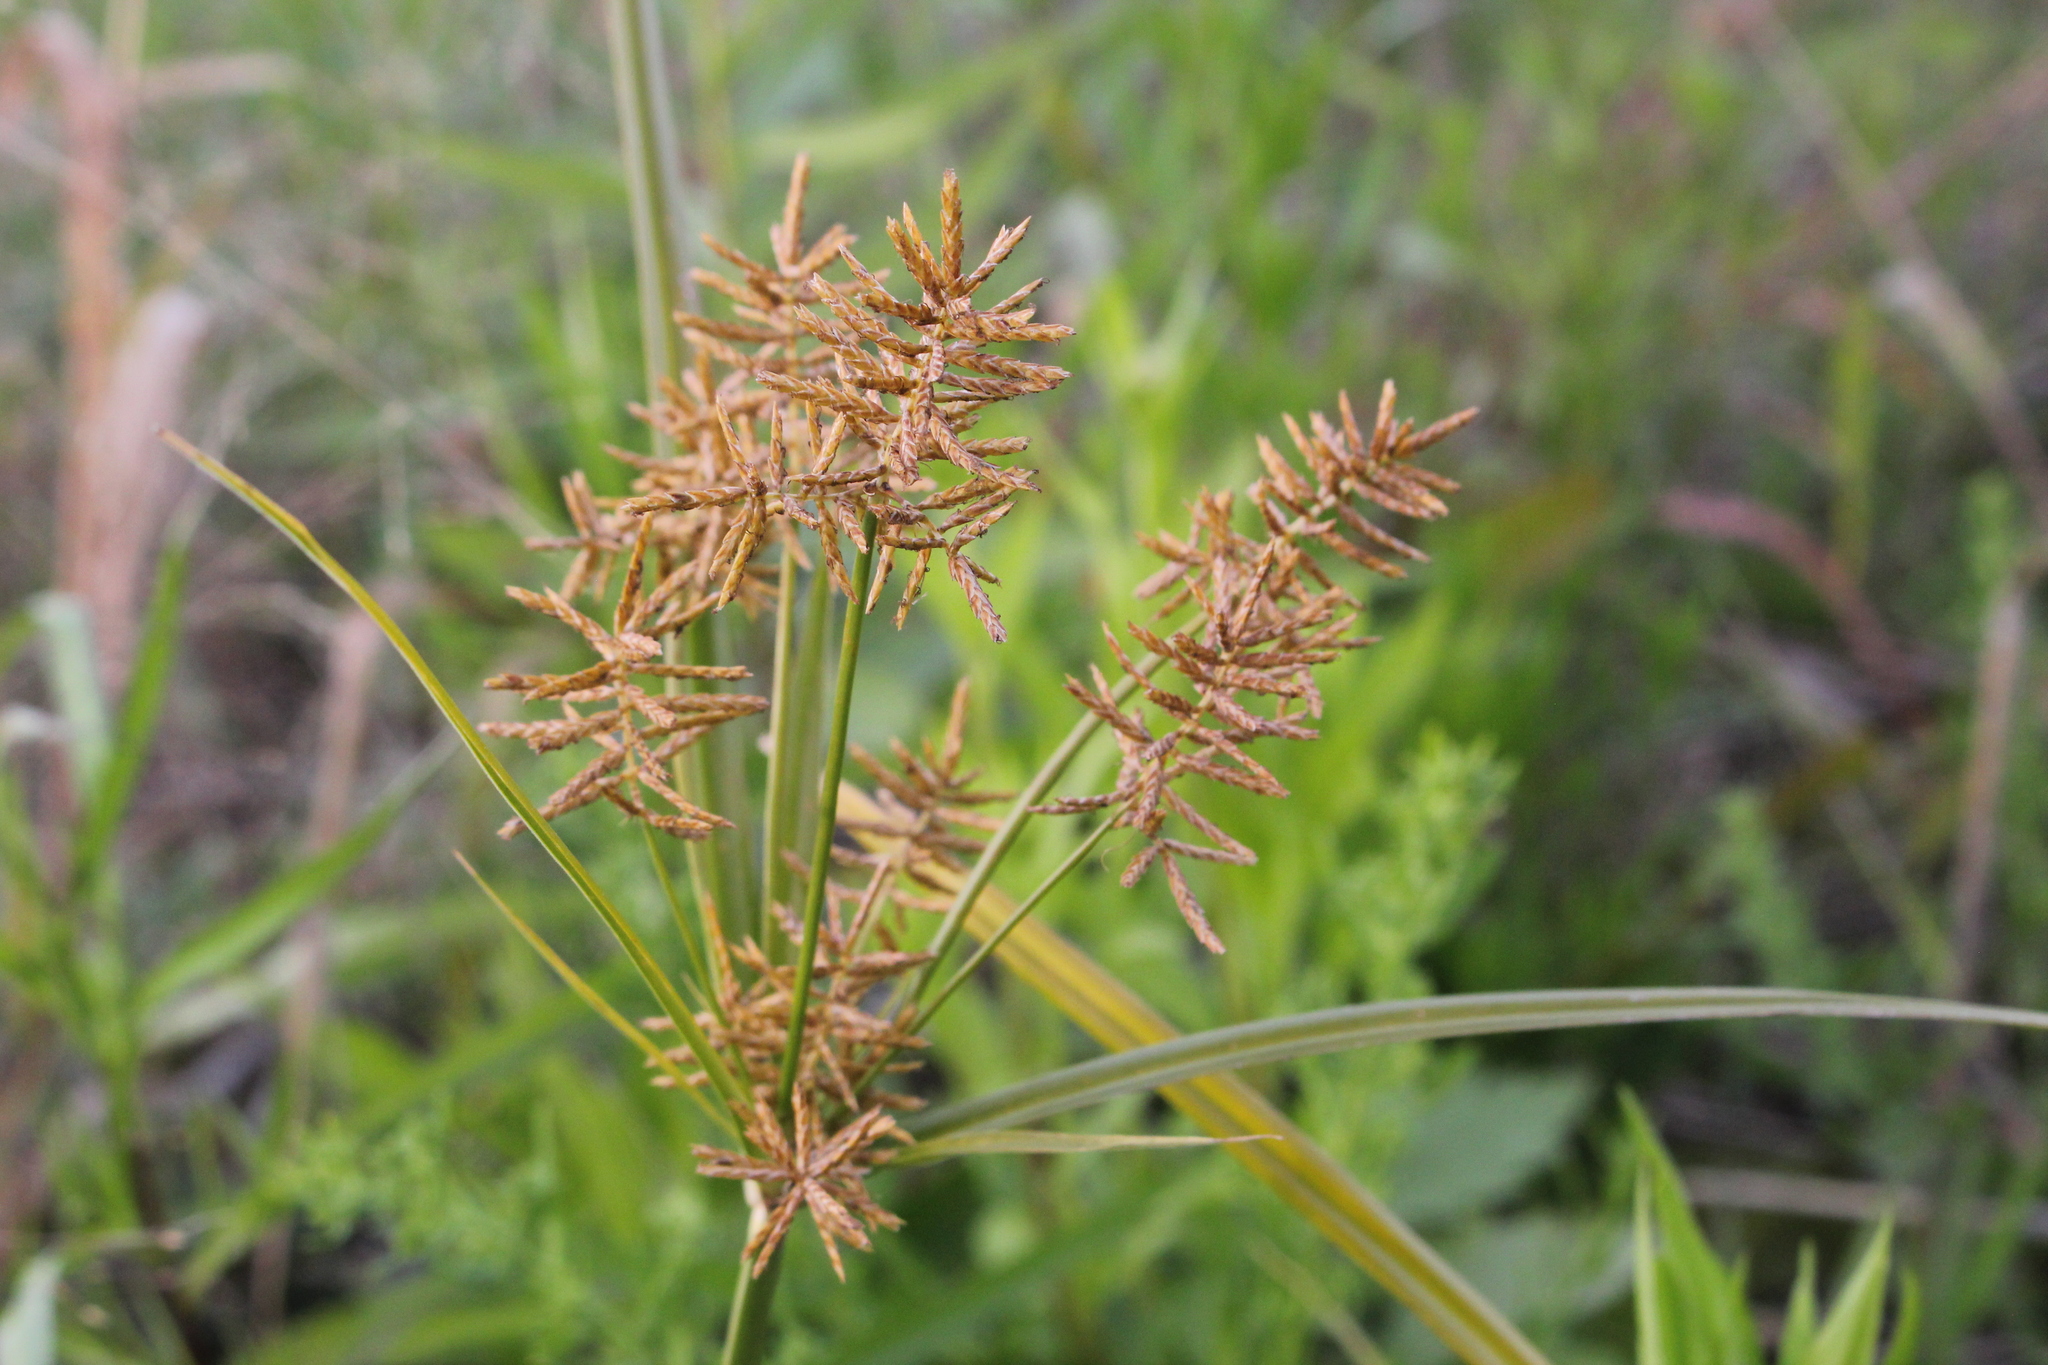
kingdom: Plantae
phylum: Tracheophyta
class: Liliopsida
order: Poales
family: Cyperaceae
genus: Cyperus
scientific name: Cyperus esculentus
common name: Yellow nutsedge
